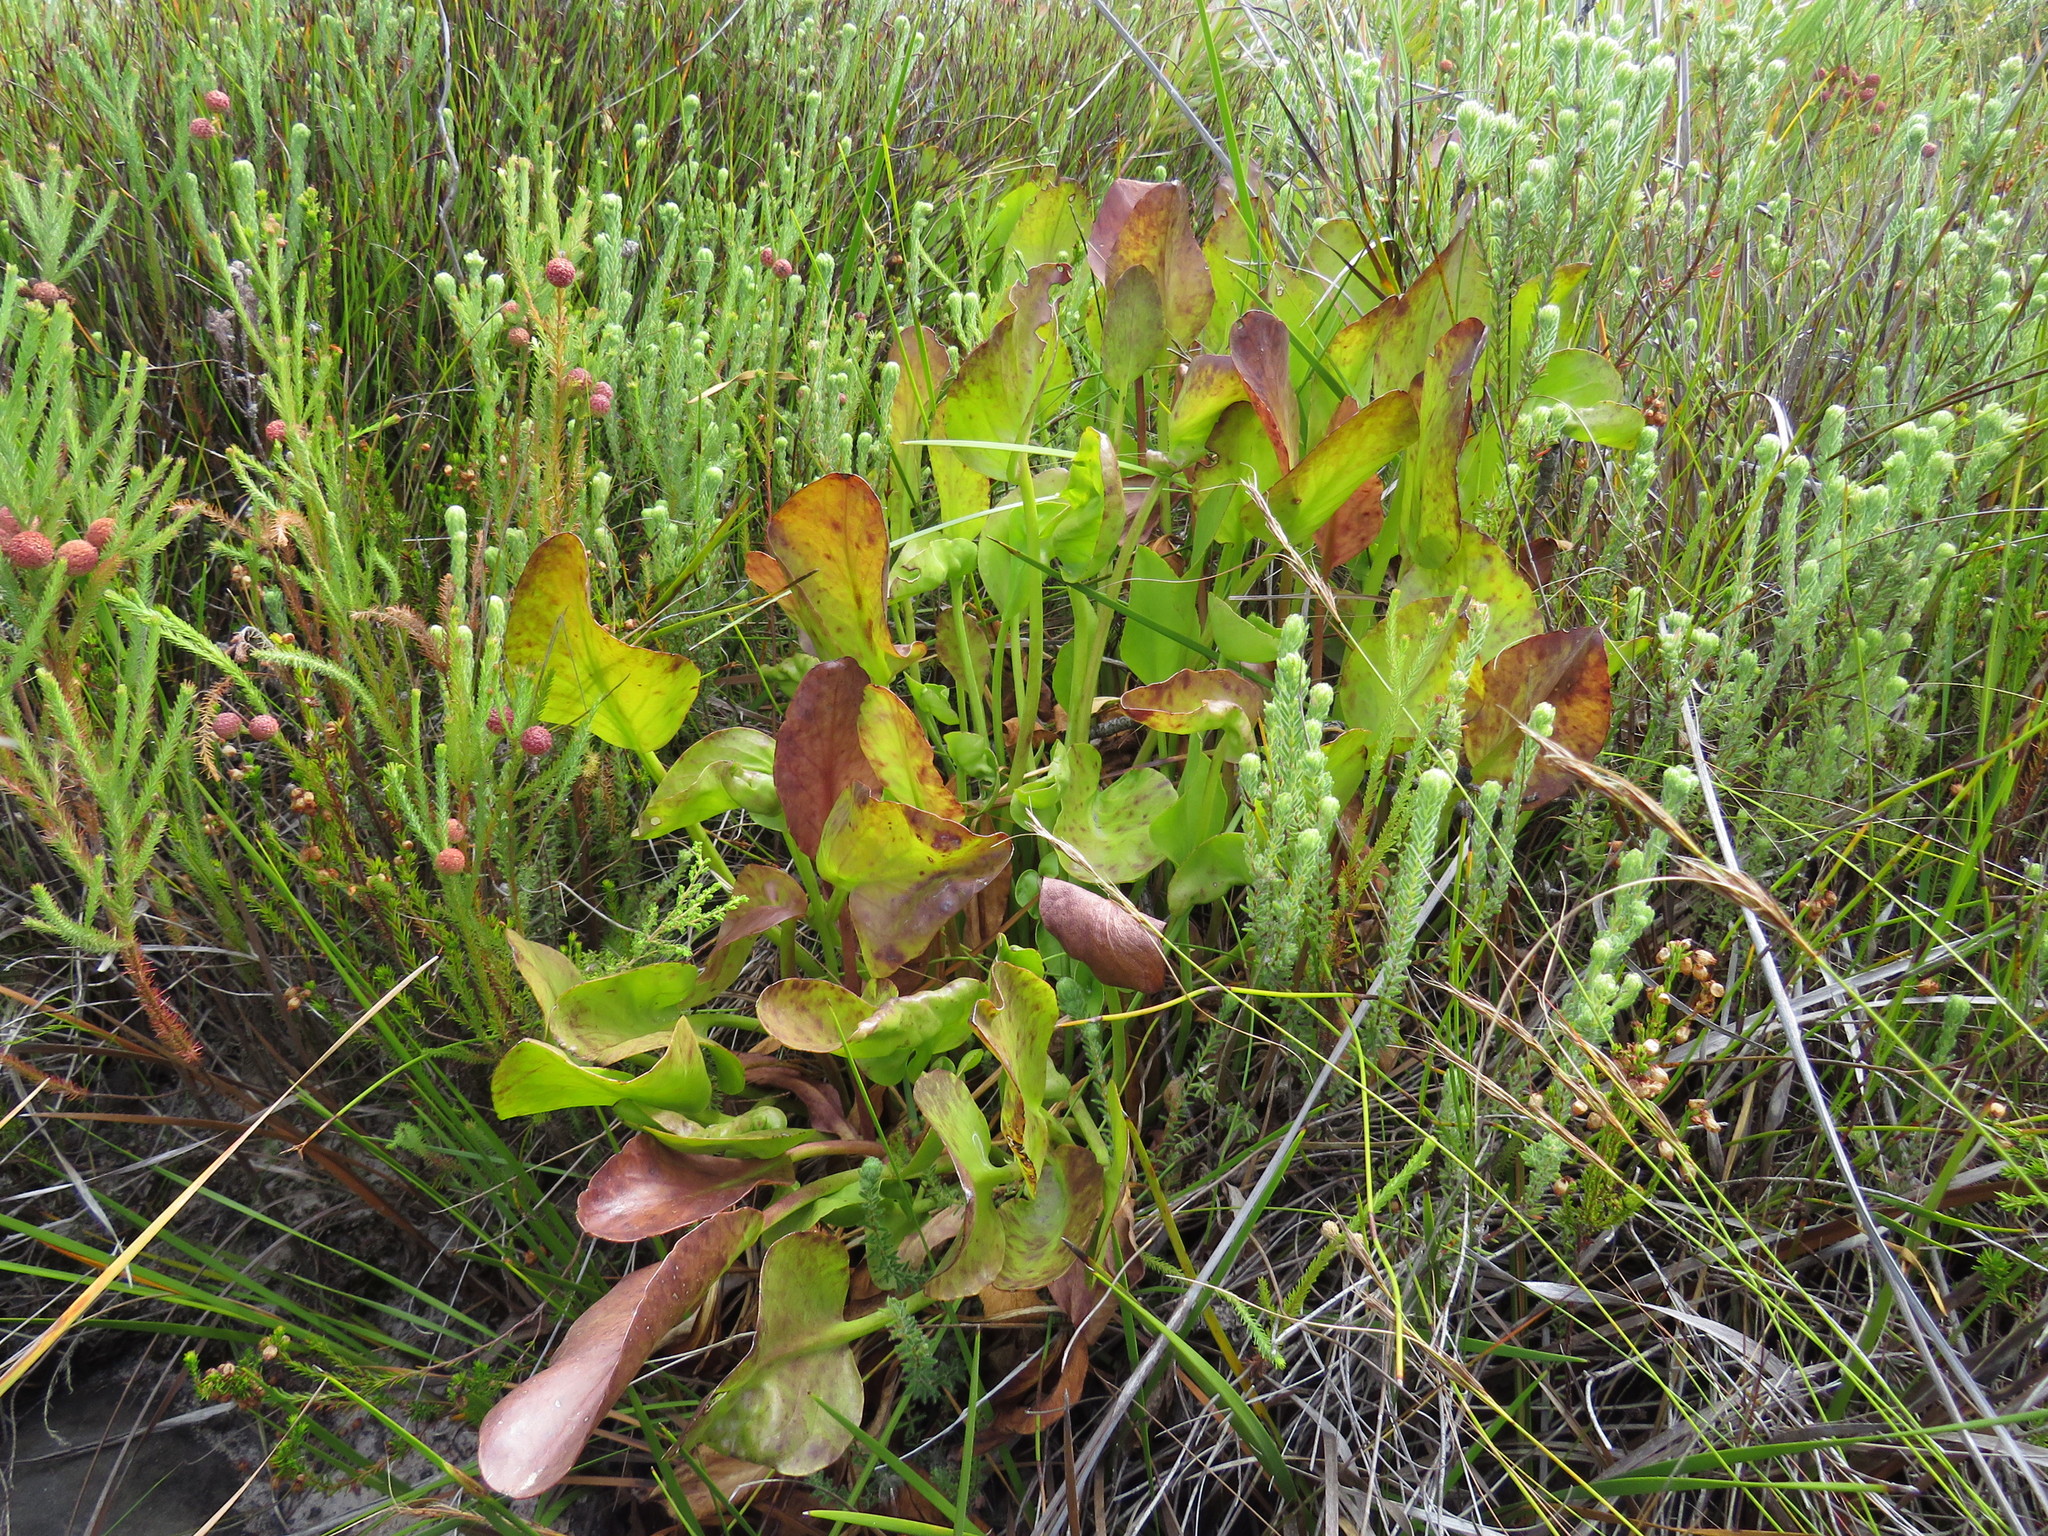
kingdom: Plantae
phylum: Tracheophyta
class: Magnoliopsida
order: Asterales
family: Menyanthaceae
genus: Villarsia
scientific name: Villarsia goldblattiana
